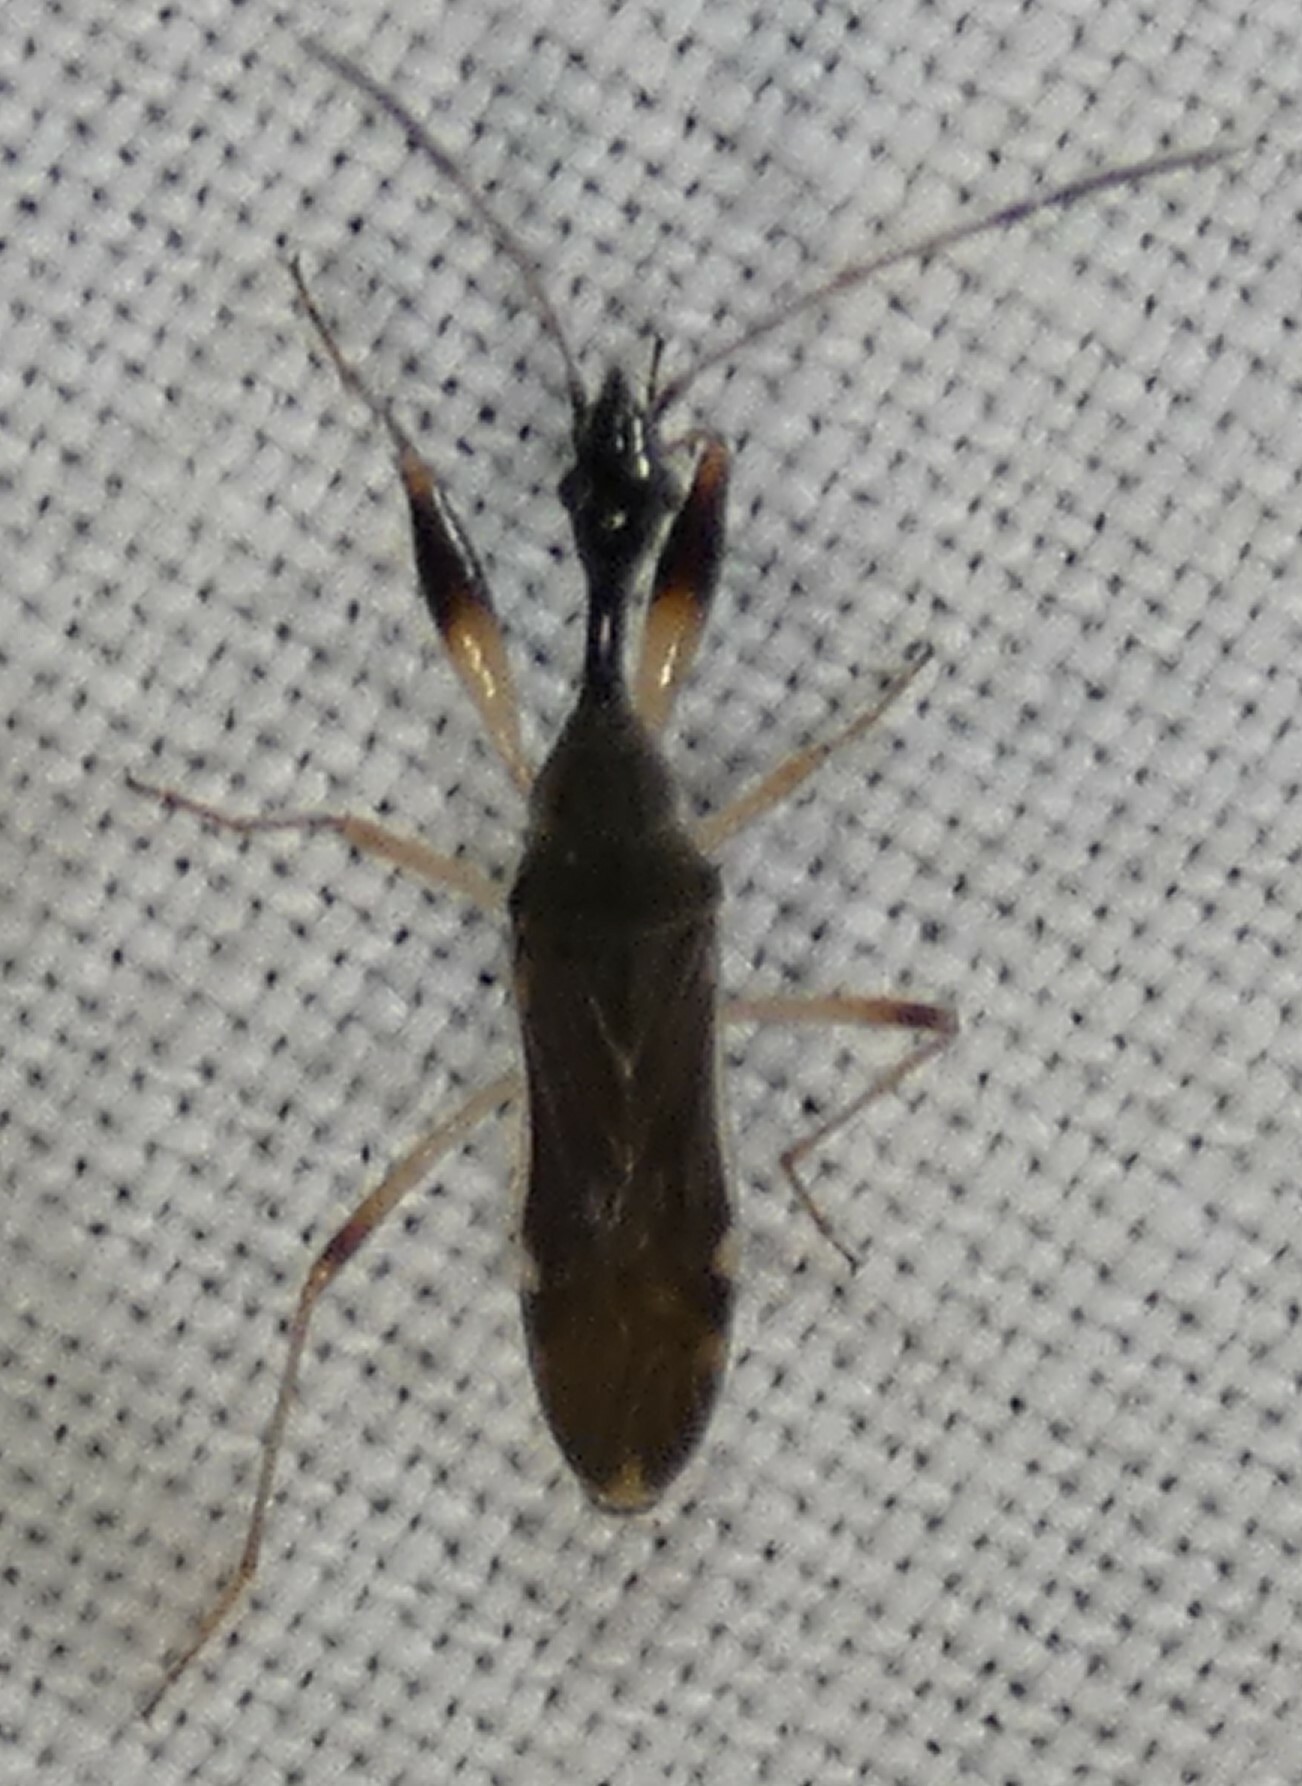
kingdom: Animalia
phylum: Arthropoda
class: Insecta
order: Hemiptera
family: Rhyparochromidae
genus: Myodocha
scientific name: Myodocha serripes
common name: Long-necked seed bug
